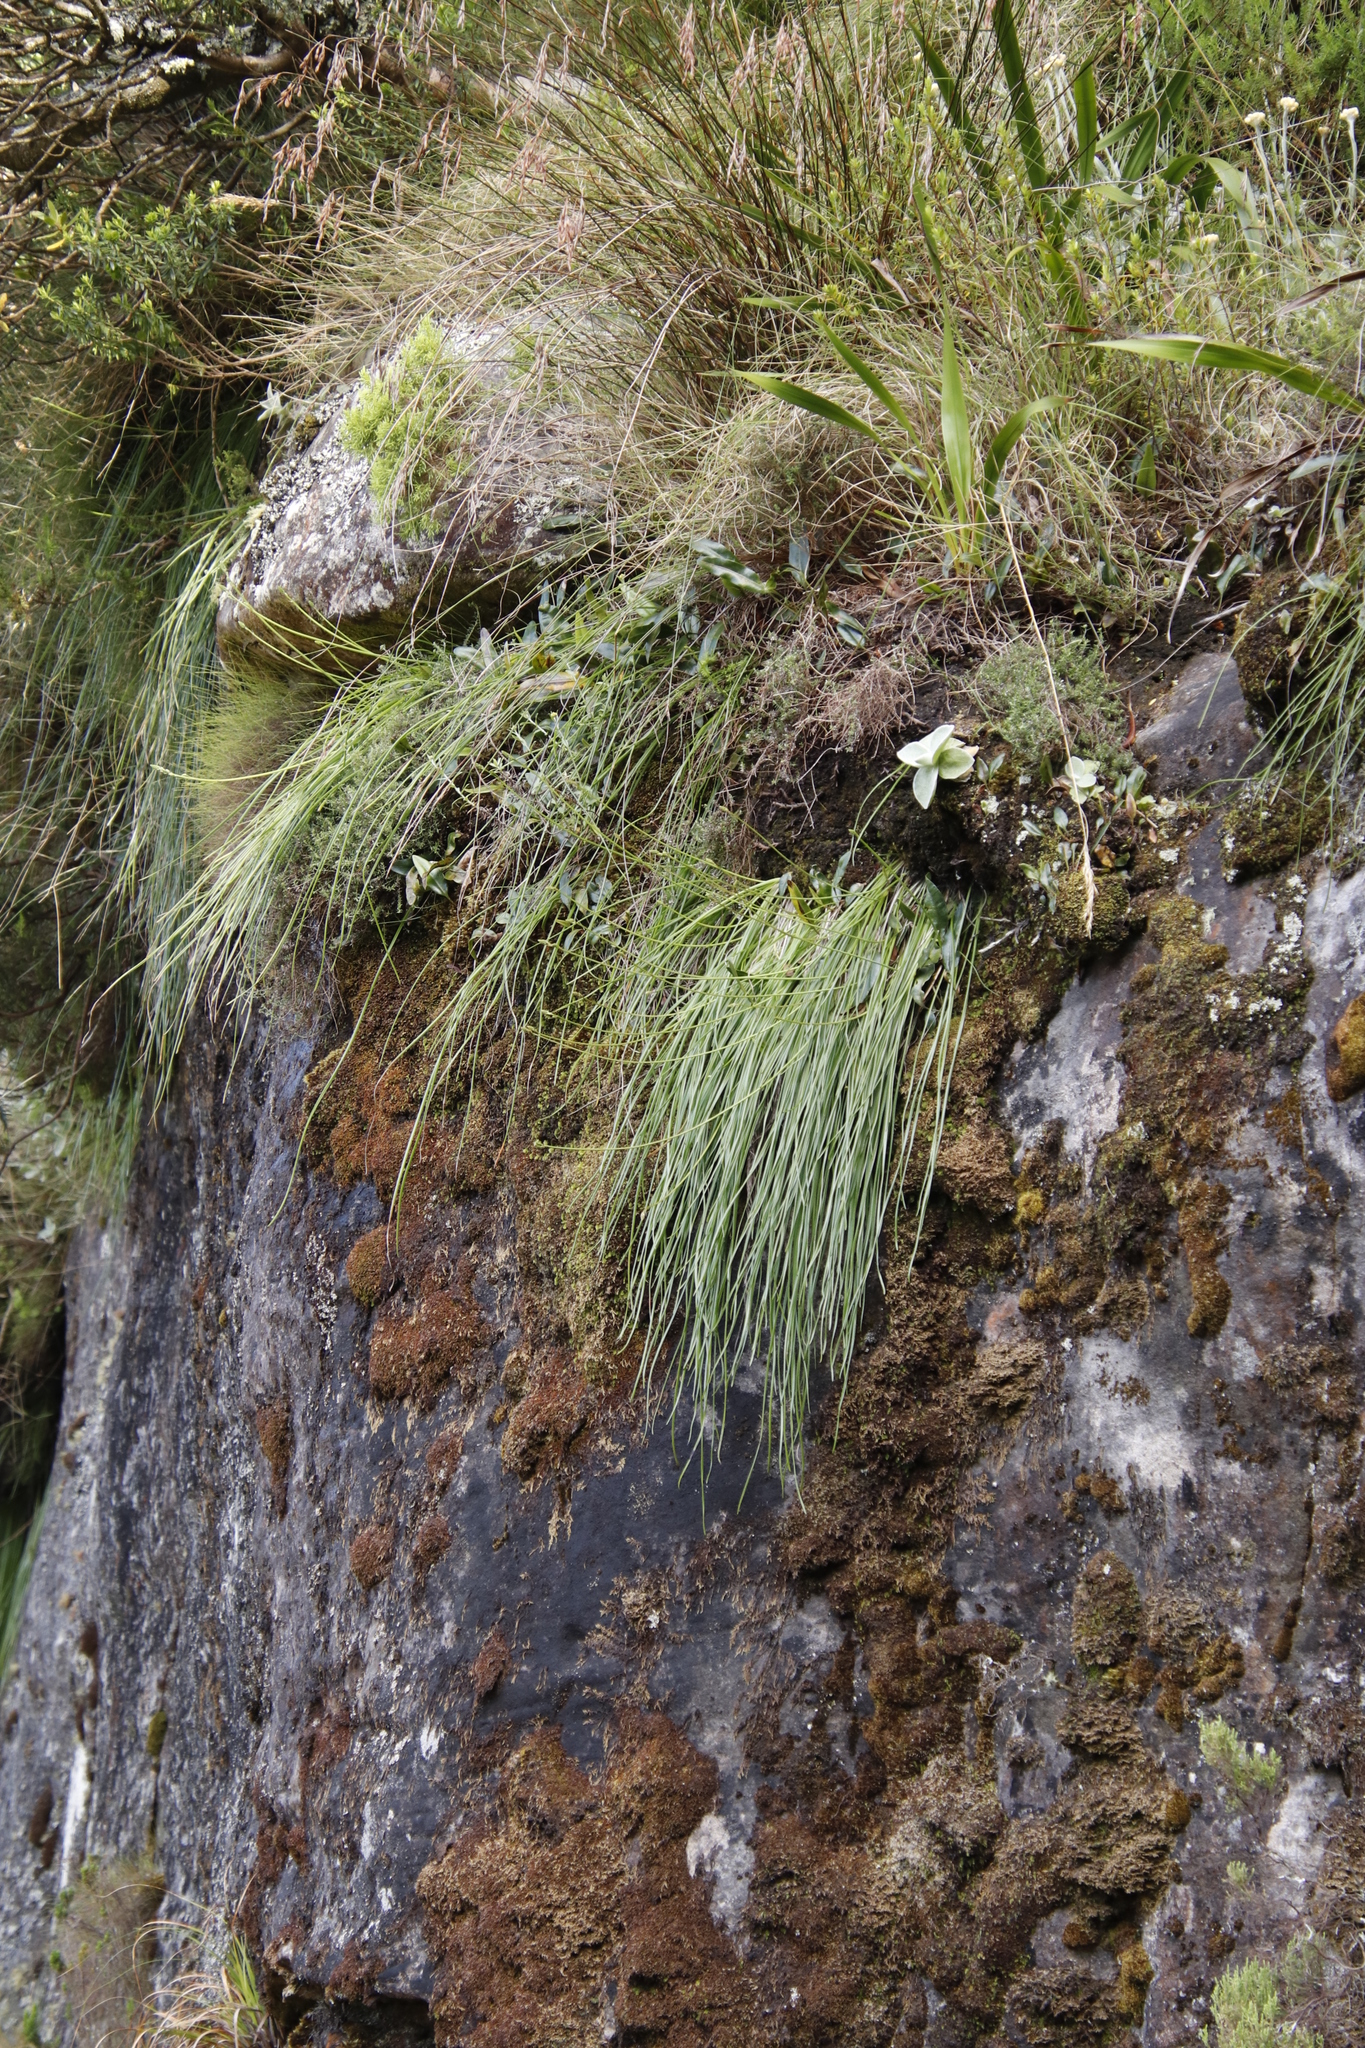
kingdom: Plantae
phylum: Tracheophyta
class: Liliopsida
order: Asparagales
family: Asphodelaceae
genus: Trachyandra
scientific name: Trachyandra tabularis
